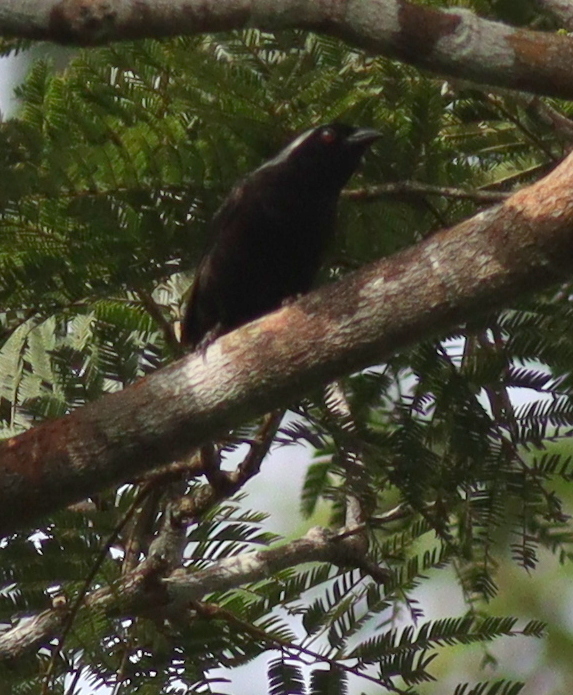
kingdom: Animalia
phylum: Chordata
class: Aves
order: Passeriformes
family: Estrildidae
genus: Nigrita
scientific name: Nigrita canicapillus
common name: Grey-headed nigrita
